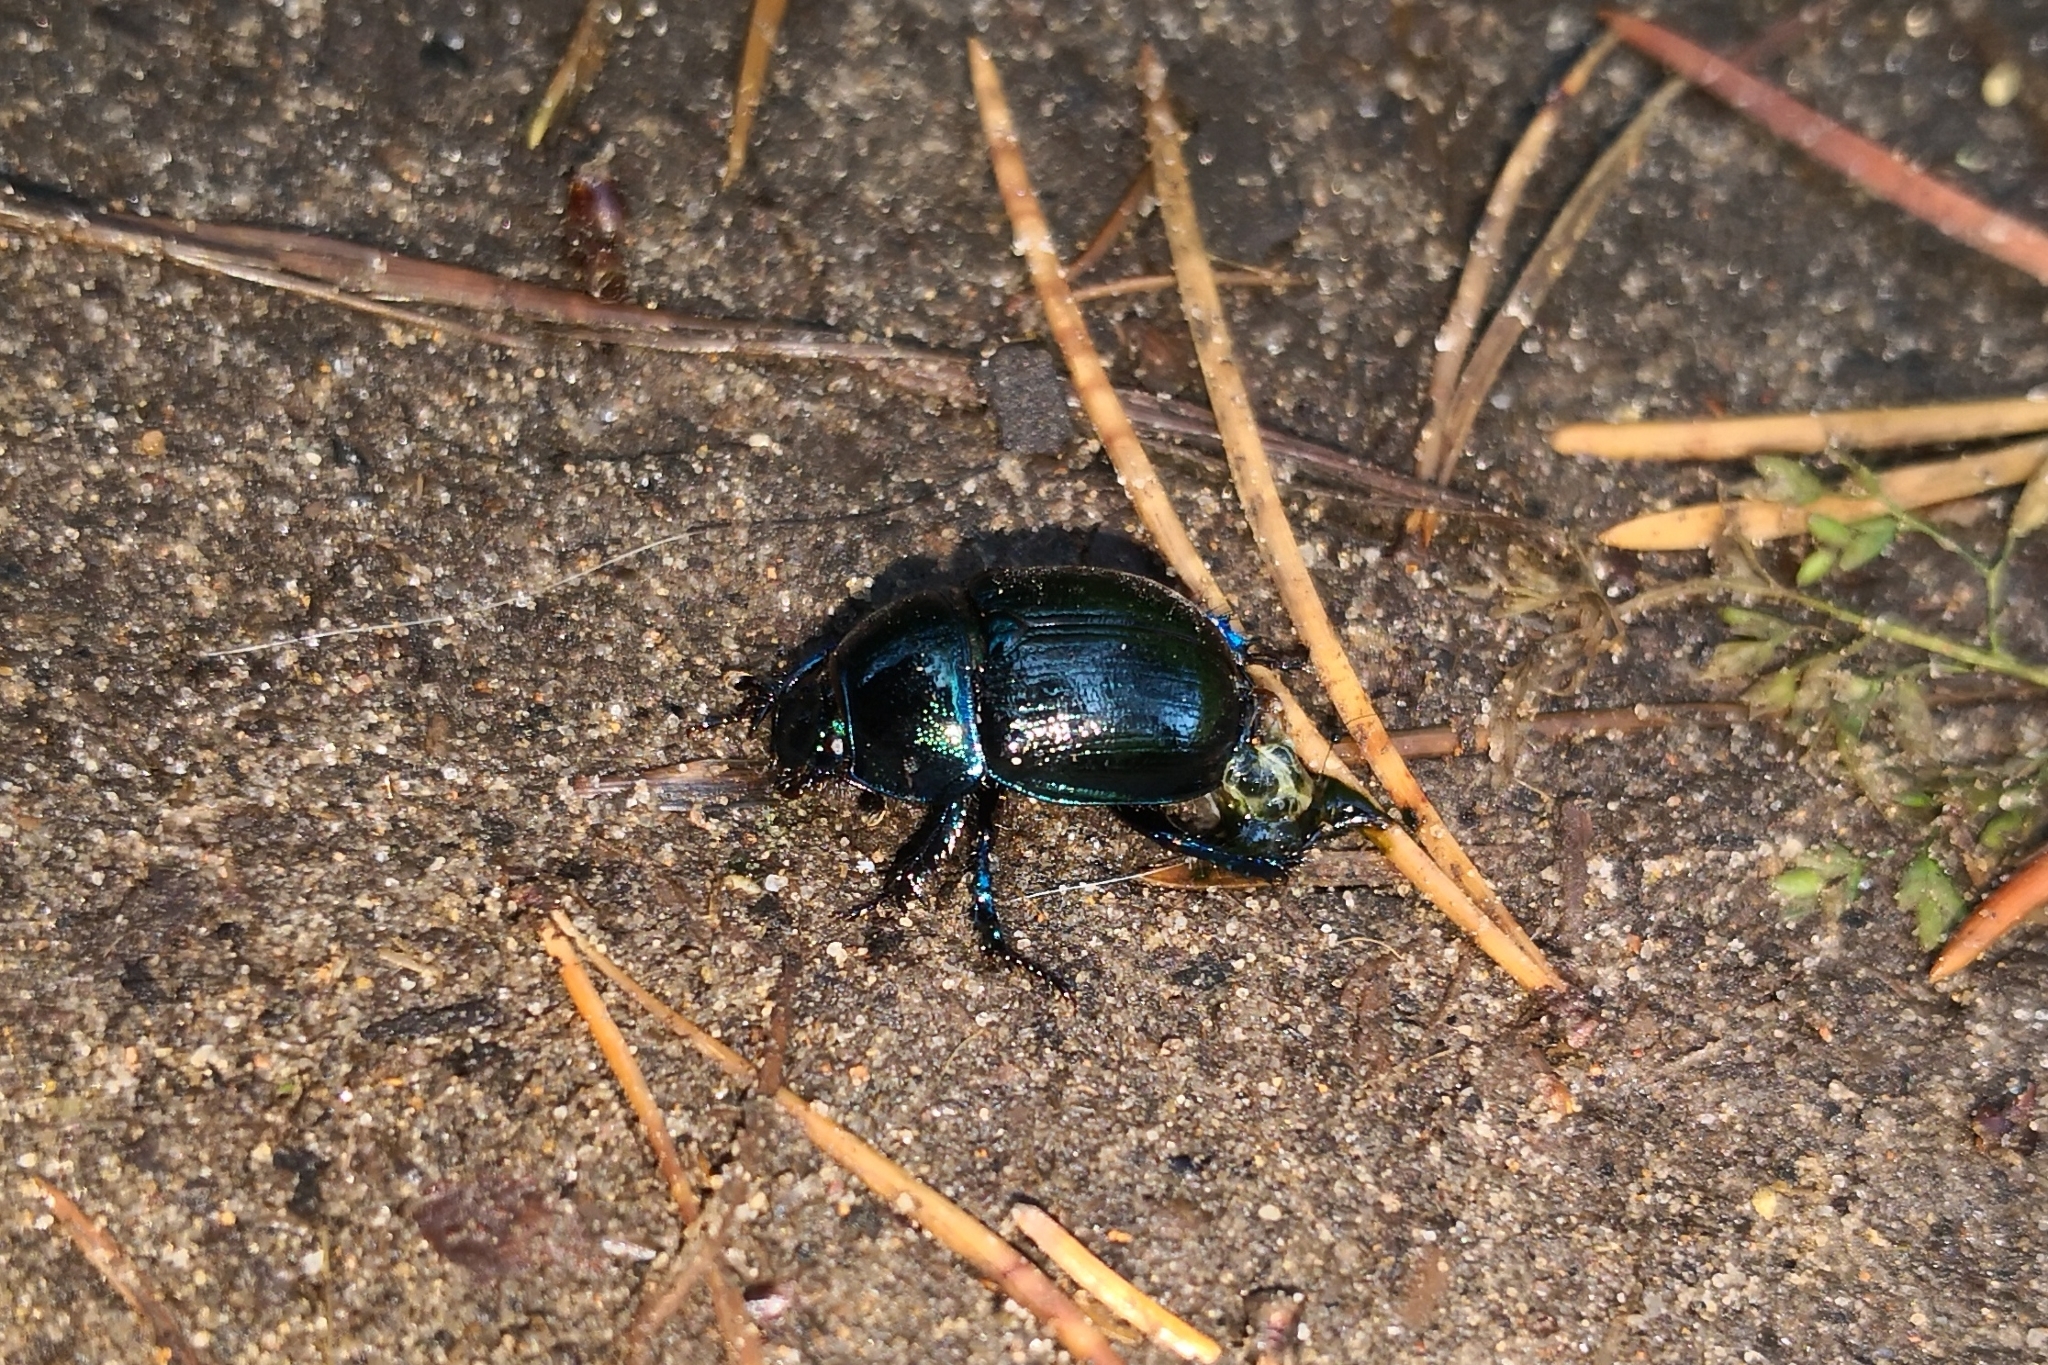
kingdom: Animalia
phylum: Arthropoda
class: Insecta
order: Coleoptera
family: Geotrupidae
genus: Anoplotrupes
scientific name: Anoplotrupes stercorosus
